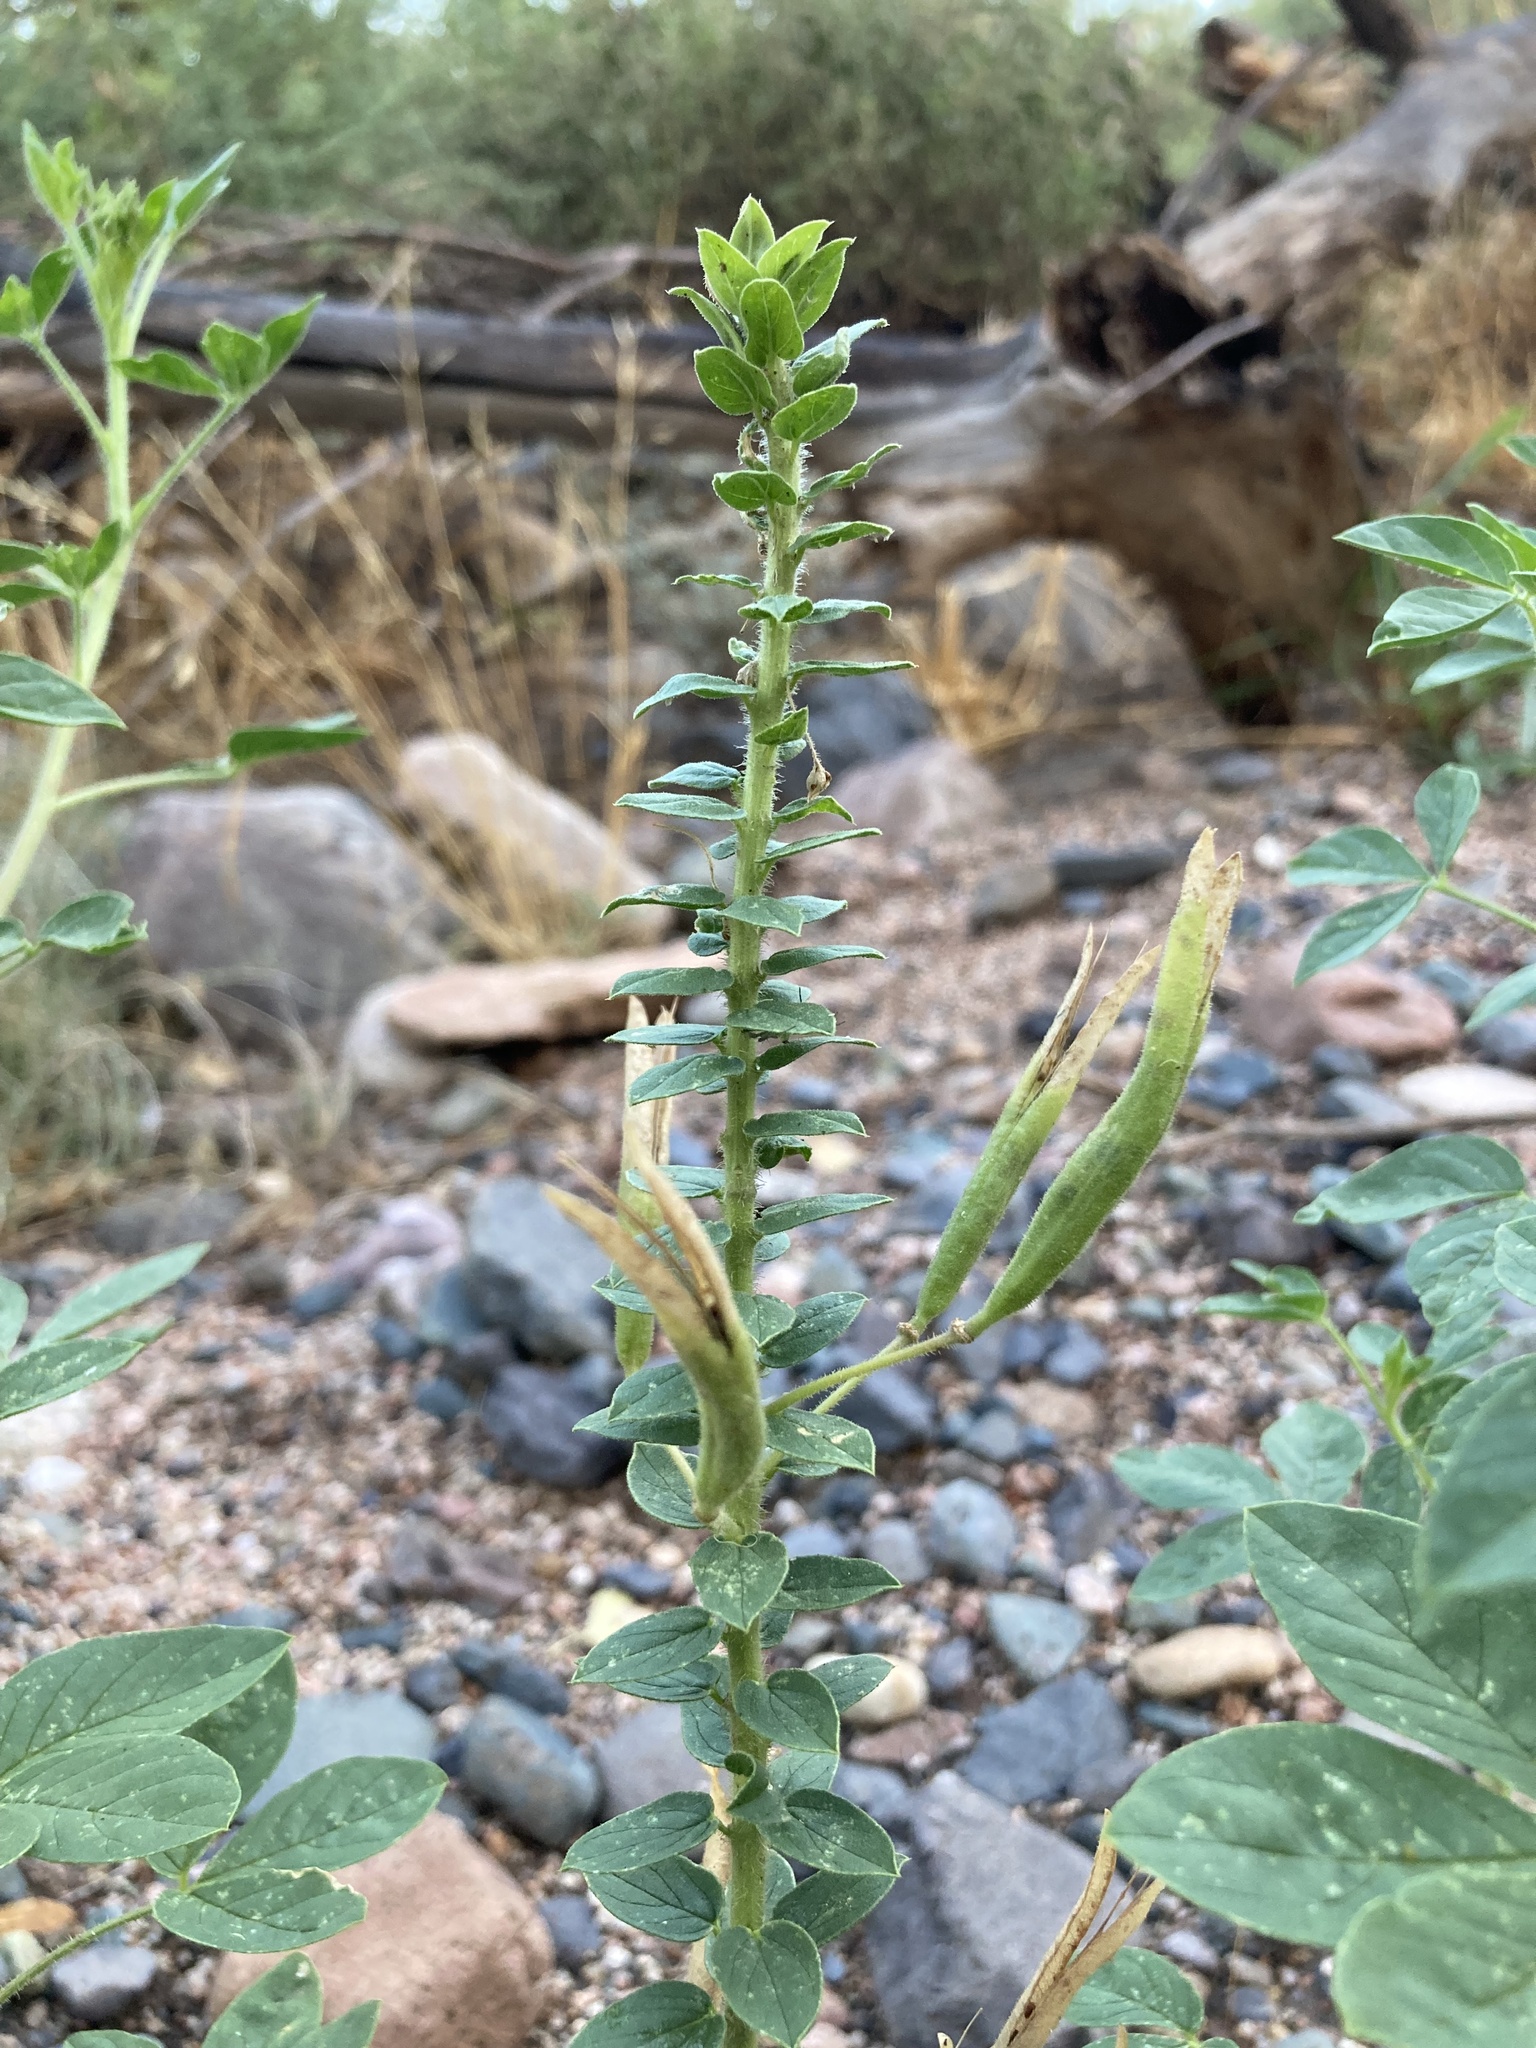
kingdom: Plantae
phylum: Tracheophyta
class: Magnoliopsida
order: Brassicales
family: Cleomaceae
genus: Polanisia
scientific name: Polanisia dodecandra
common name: Clammyweed
